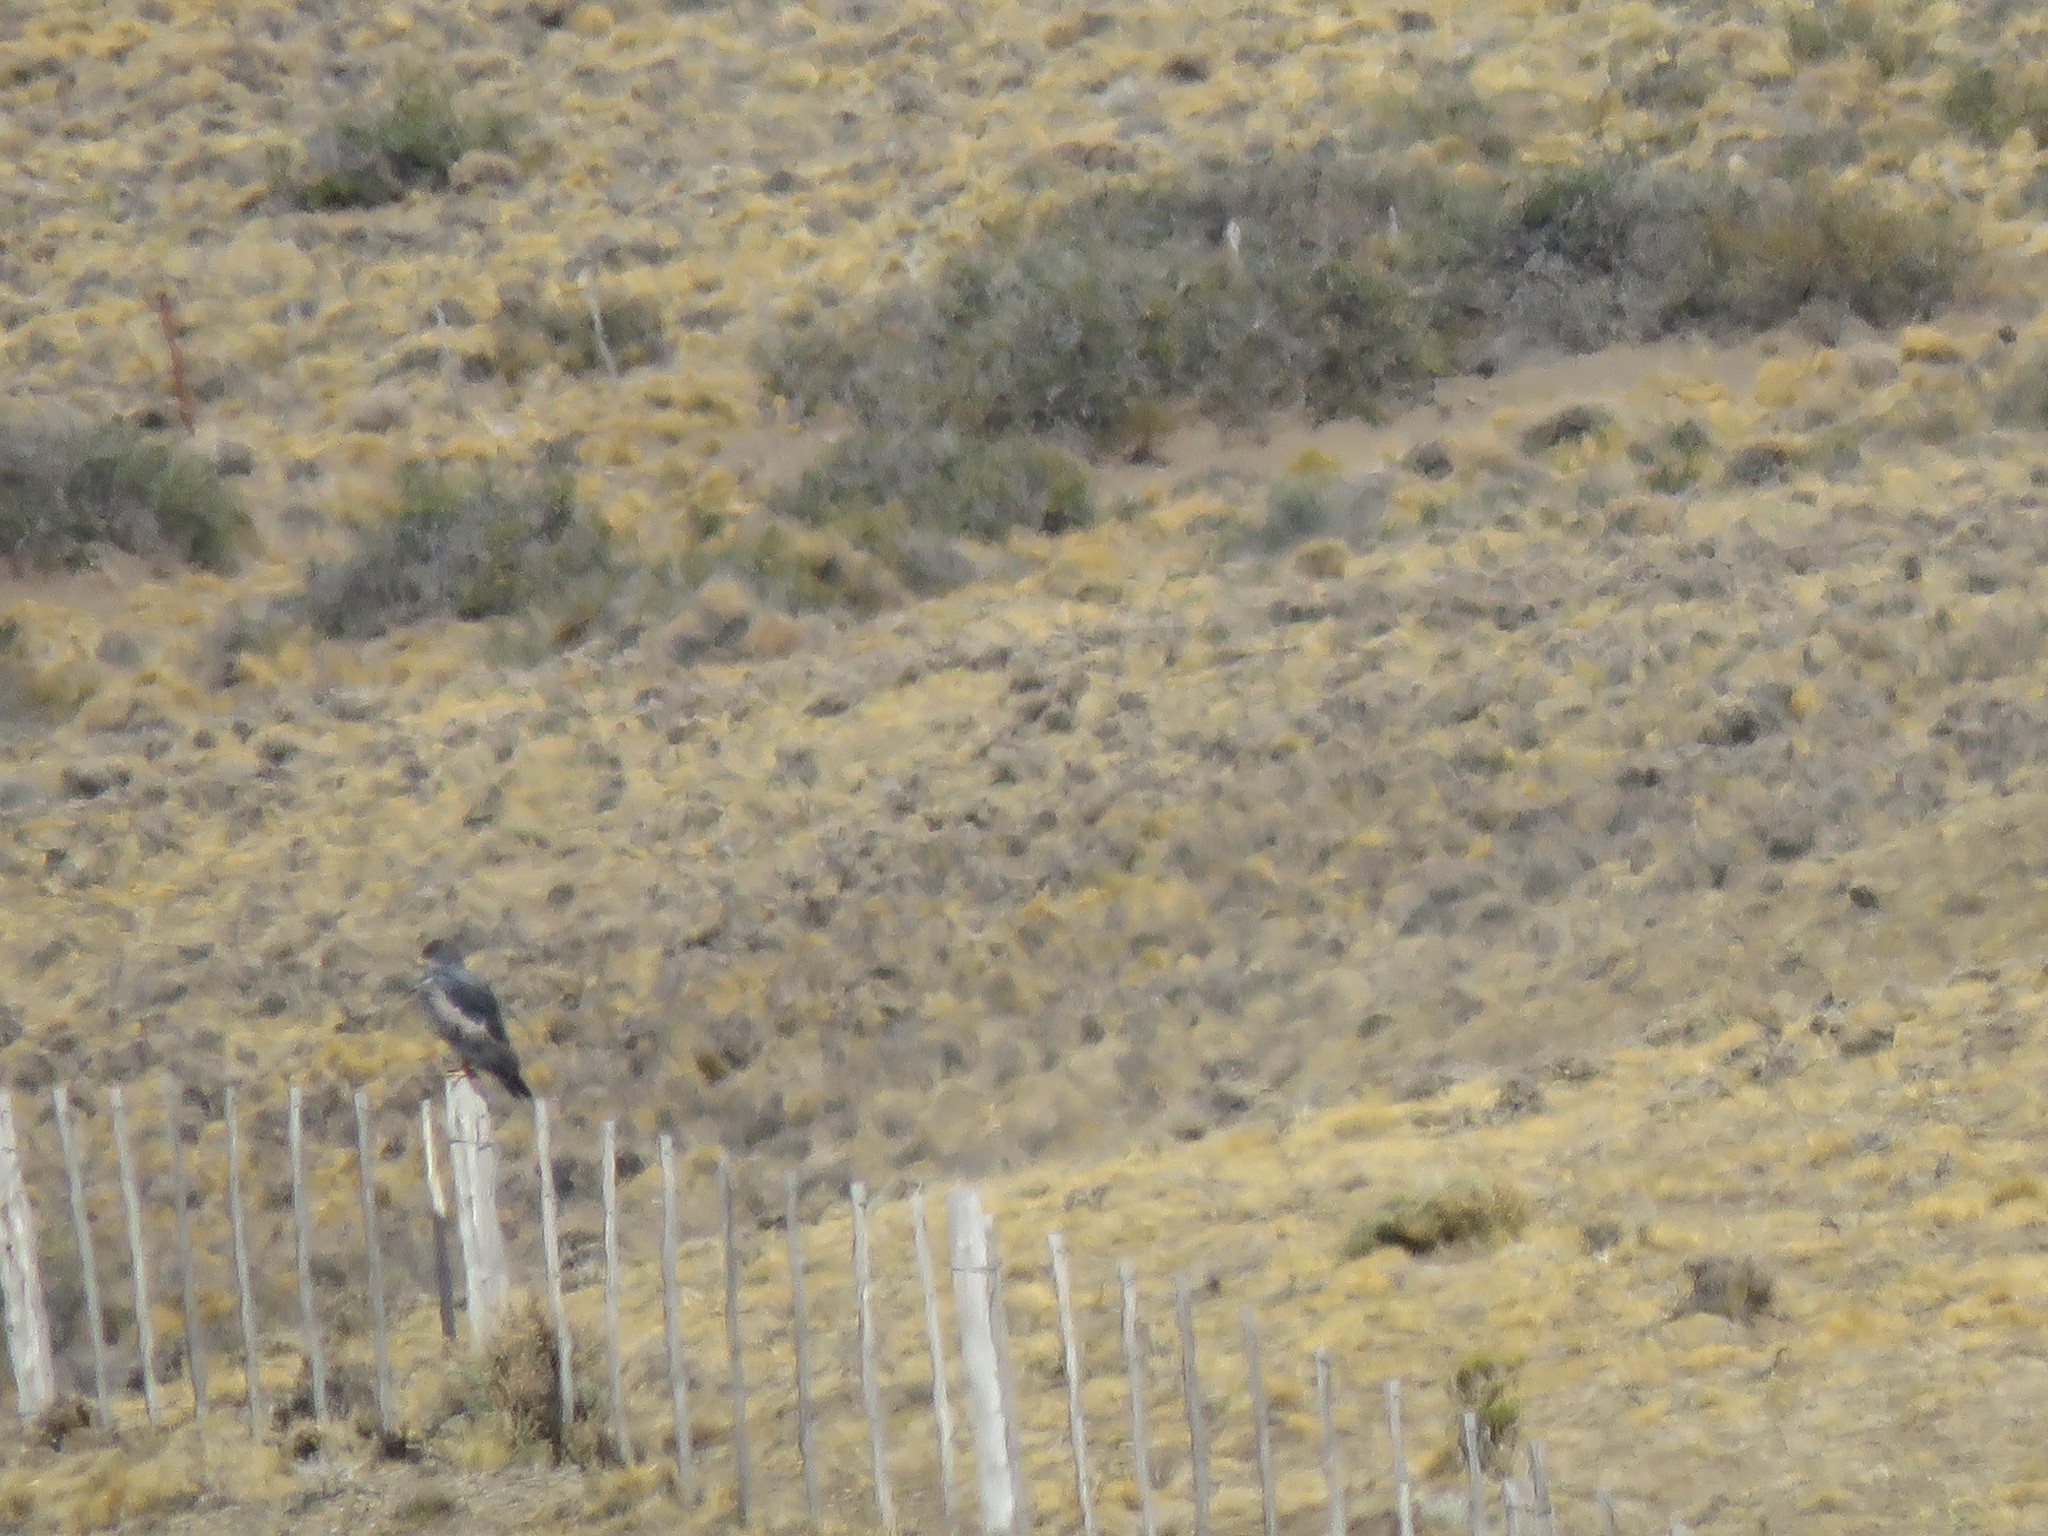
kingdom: Animalia
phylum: Chordata
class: Aves
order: Accipitriformes
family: Accipitridae
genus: Geranoaetus
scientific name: Geranoaetus melanoleucus
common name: Black-chested buzzard-eagle
